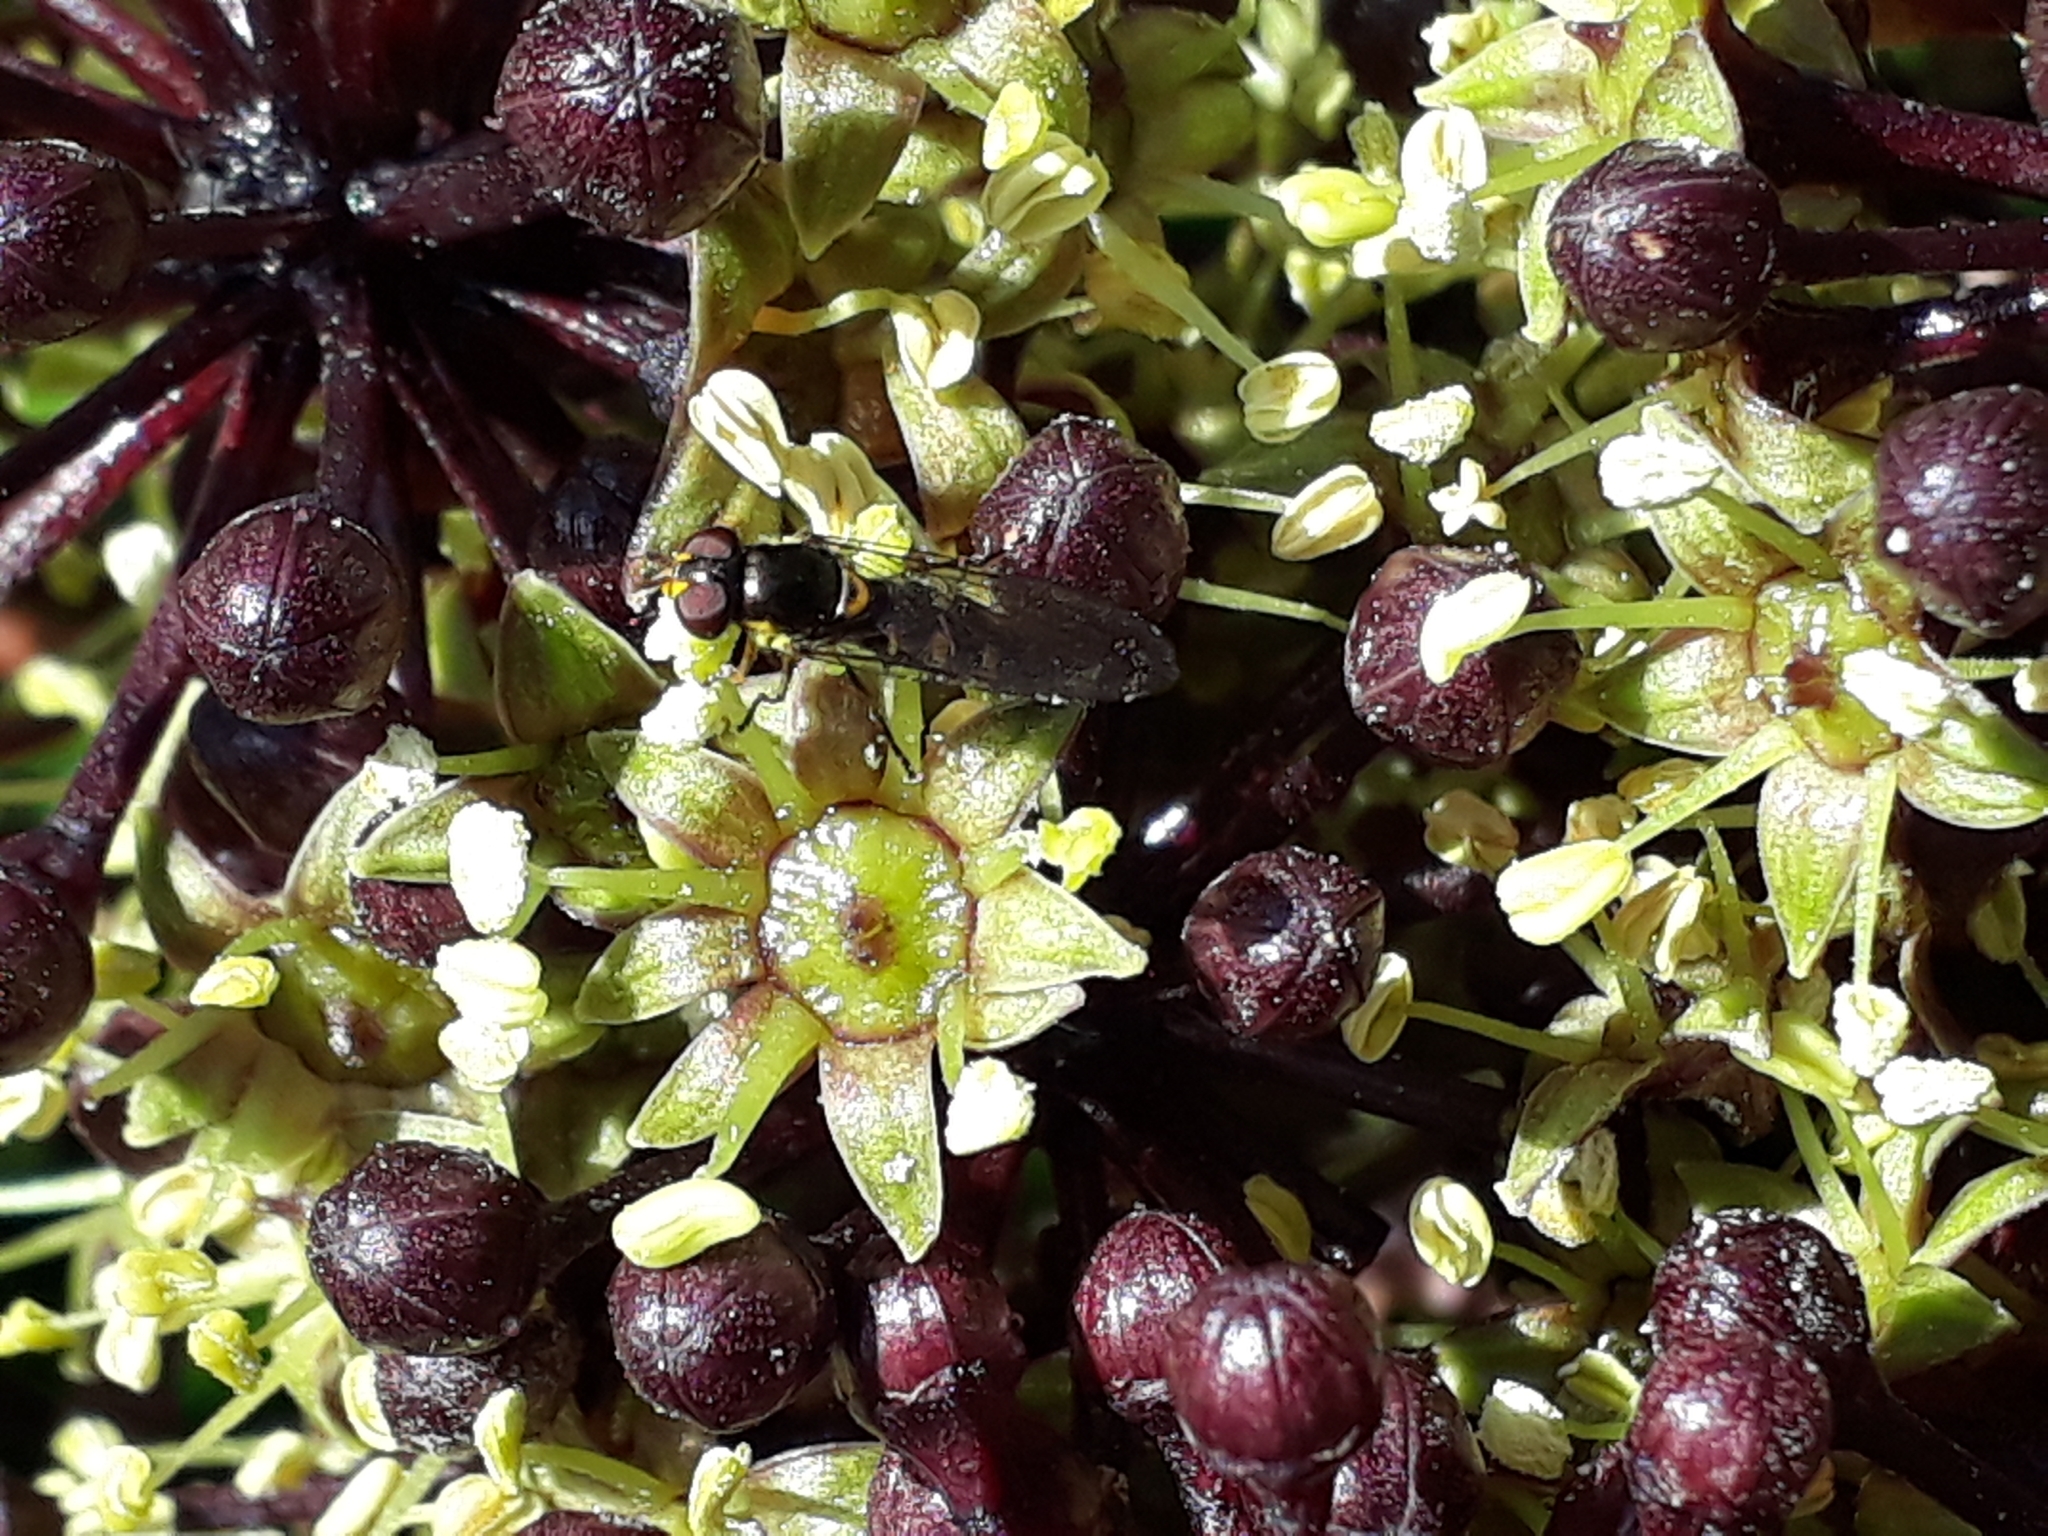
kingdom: Animalia
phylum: Arthropoda
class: Insecta
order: Diptera
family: Syrphidae
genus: Melangyna
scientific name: Melangyna novaezelandiae
